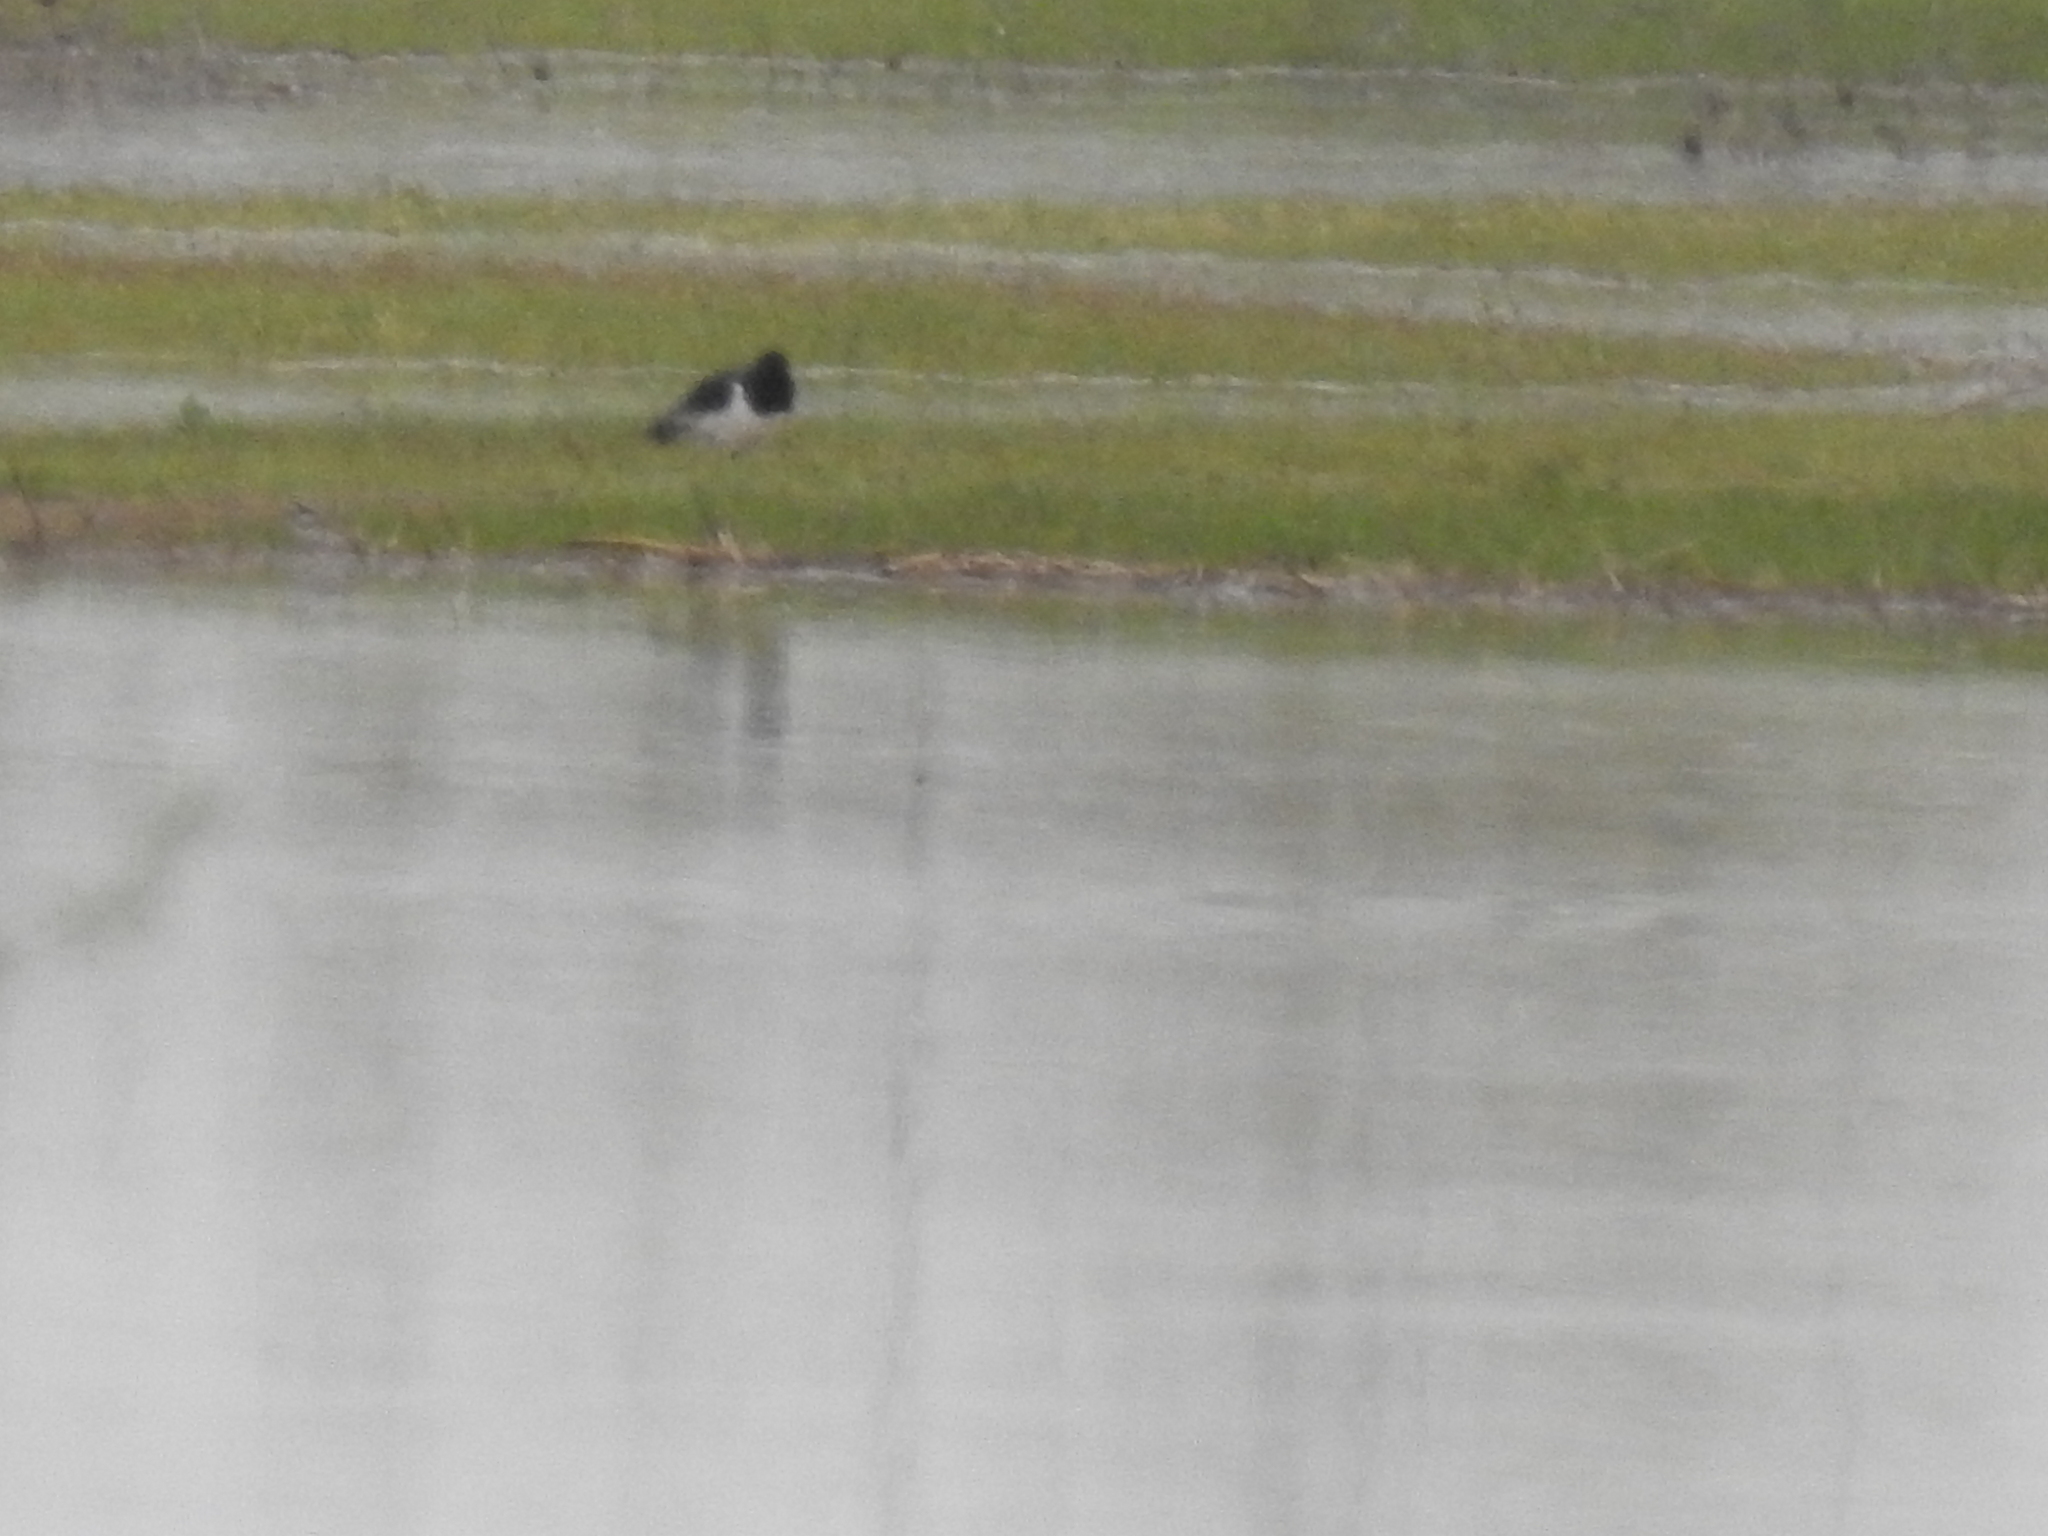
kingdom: Animalia
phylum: Chordata
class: Aves
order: Charadriiformes
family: Haematopodidae
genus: Haematopus
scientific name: Haematopus ostralegus
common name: Eurasian oystercatcher
